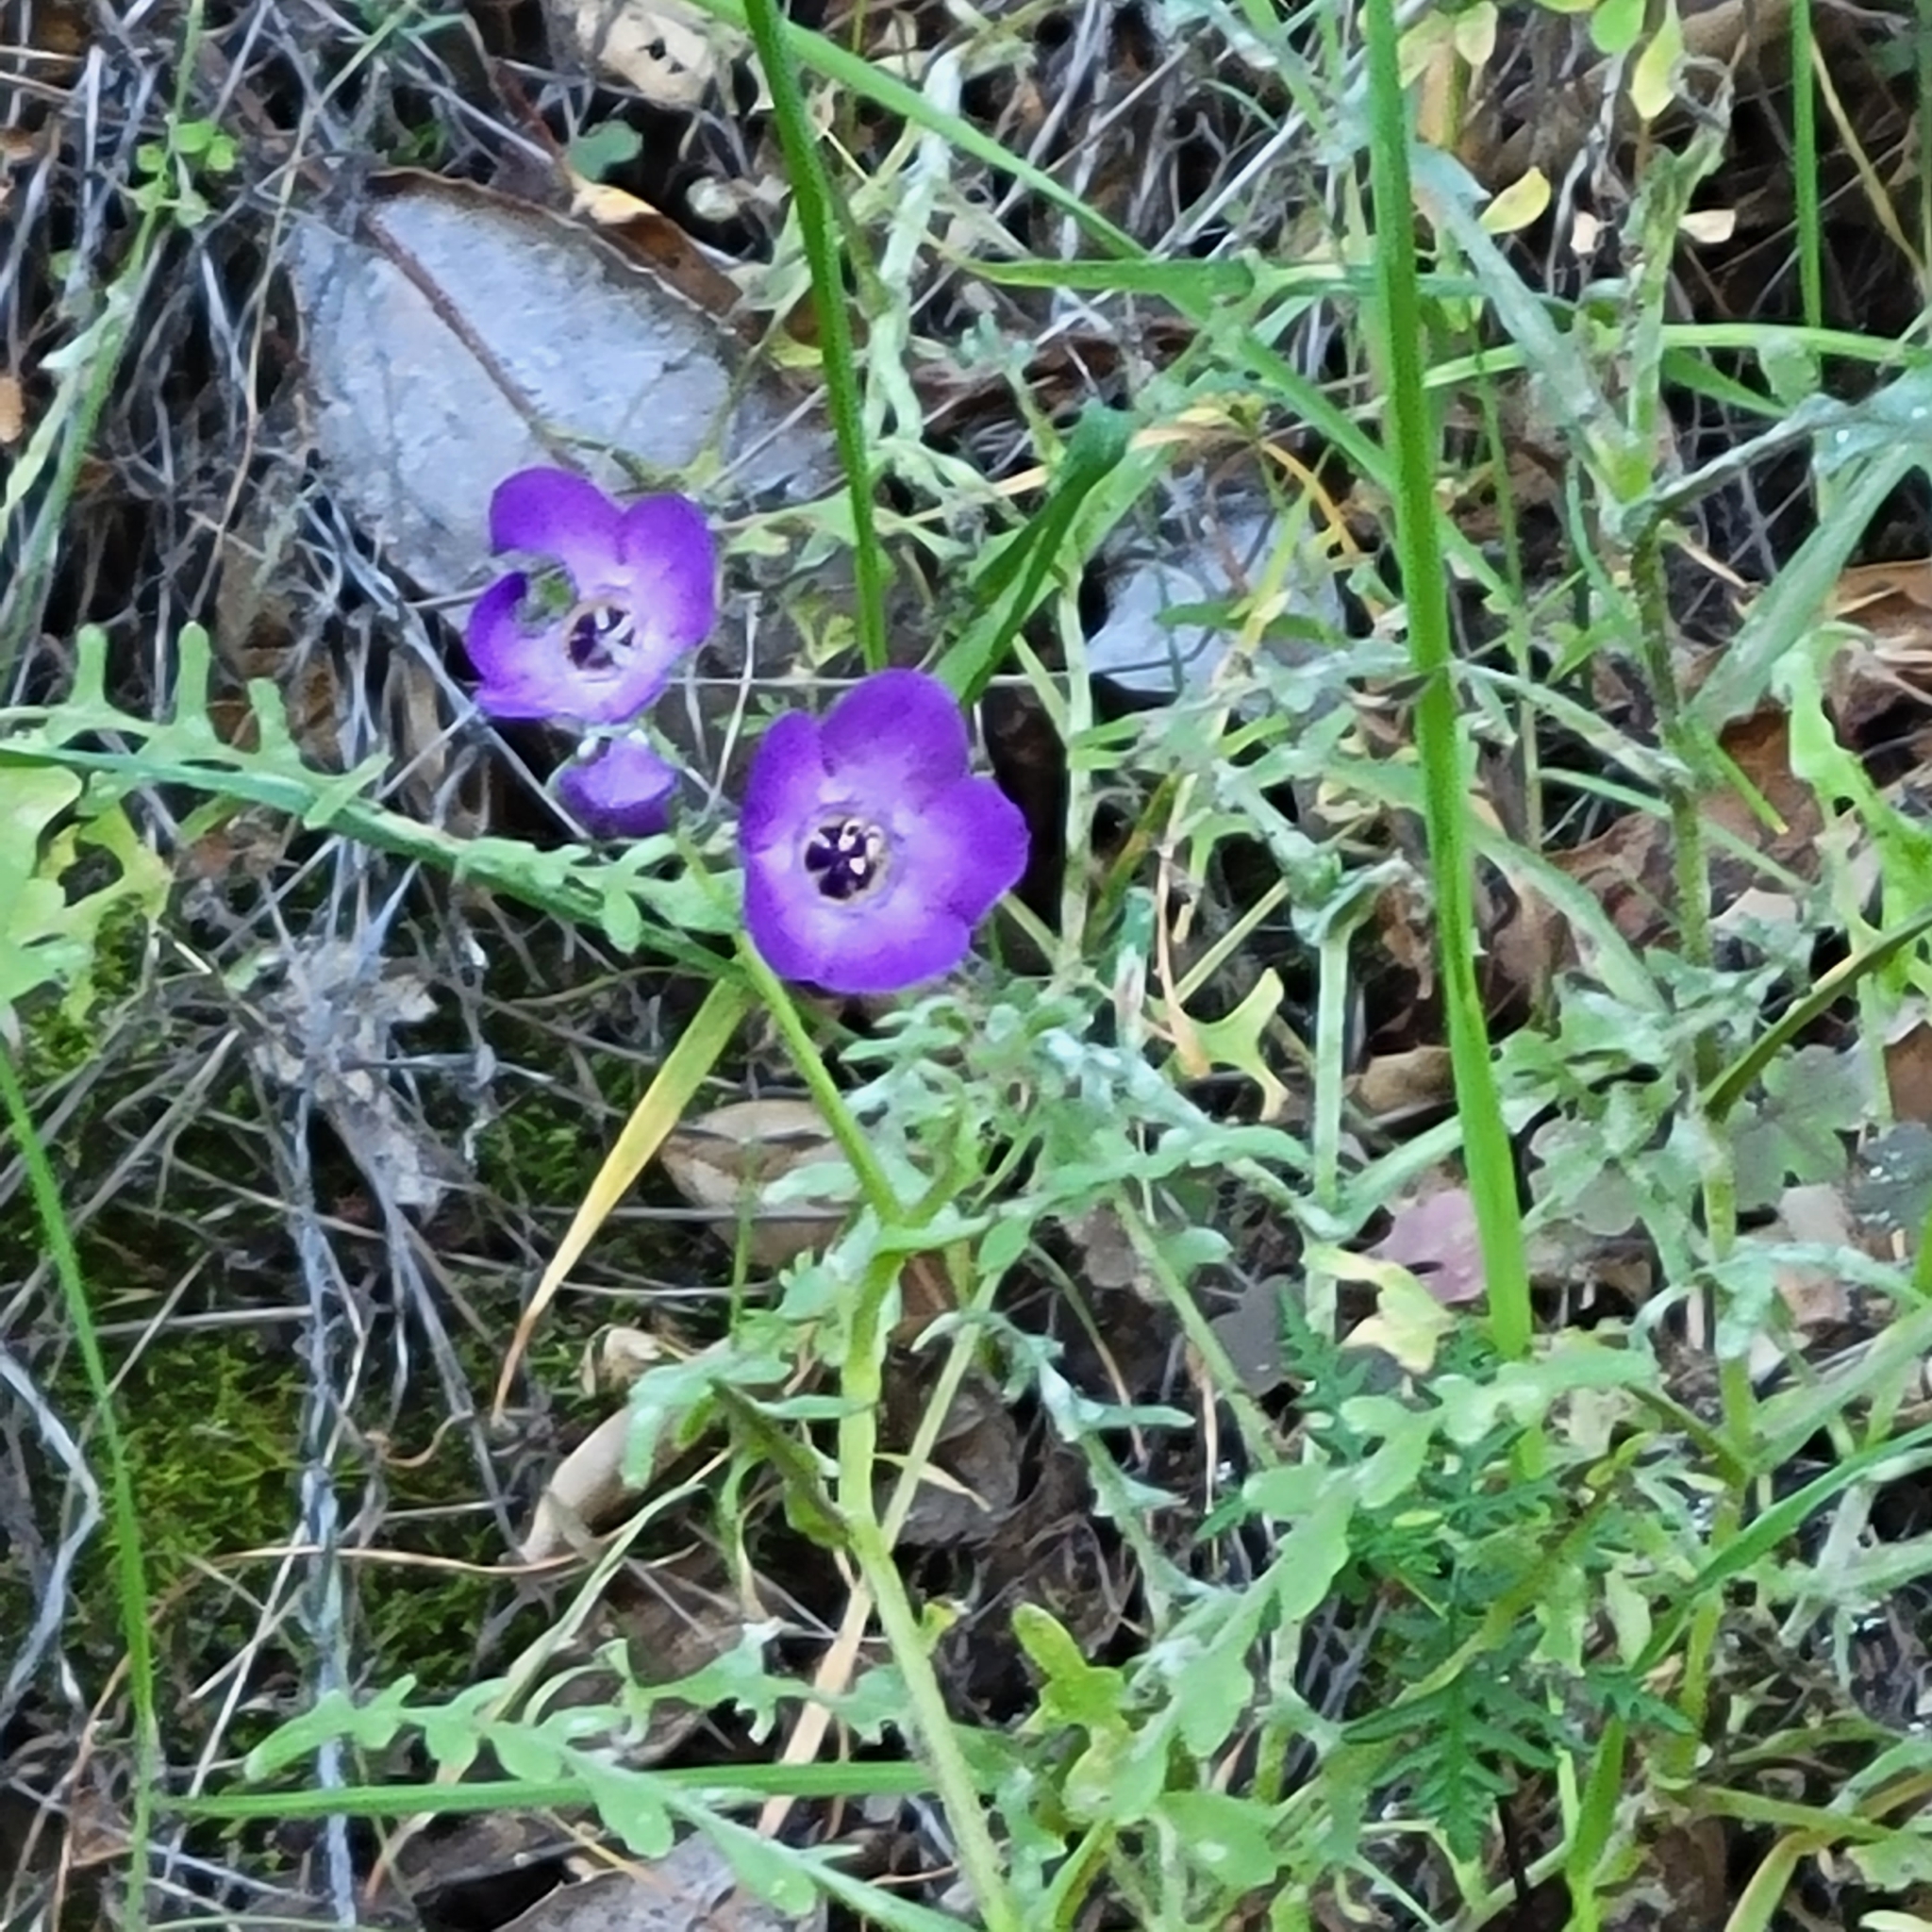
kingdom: Plantae
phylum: Tracheophyta
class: Magnoliopsida
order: Boraginales
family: Hydrophyllaceae
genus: Pholistoma
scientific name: Pholistoma auritum
